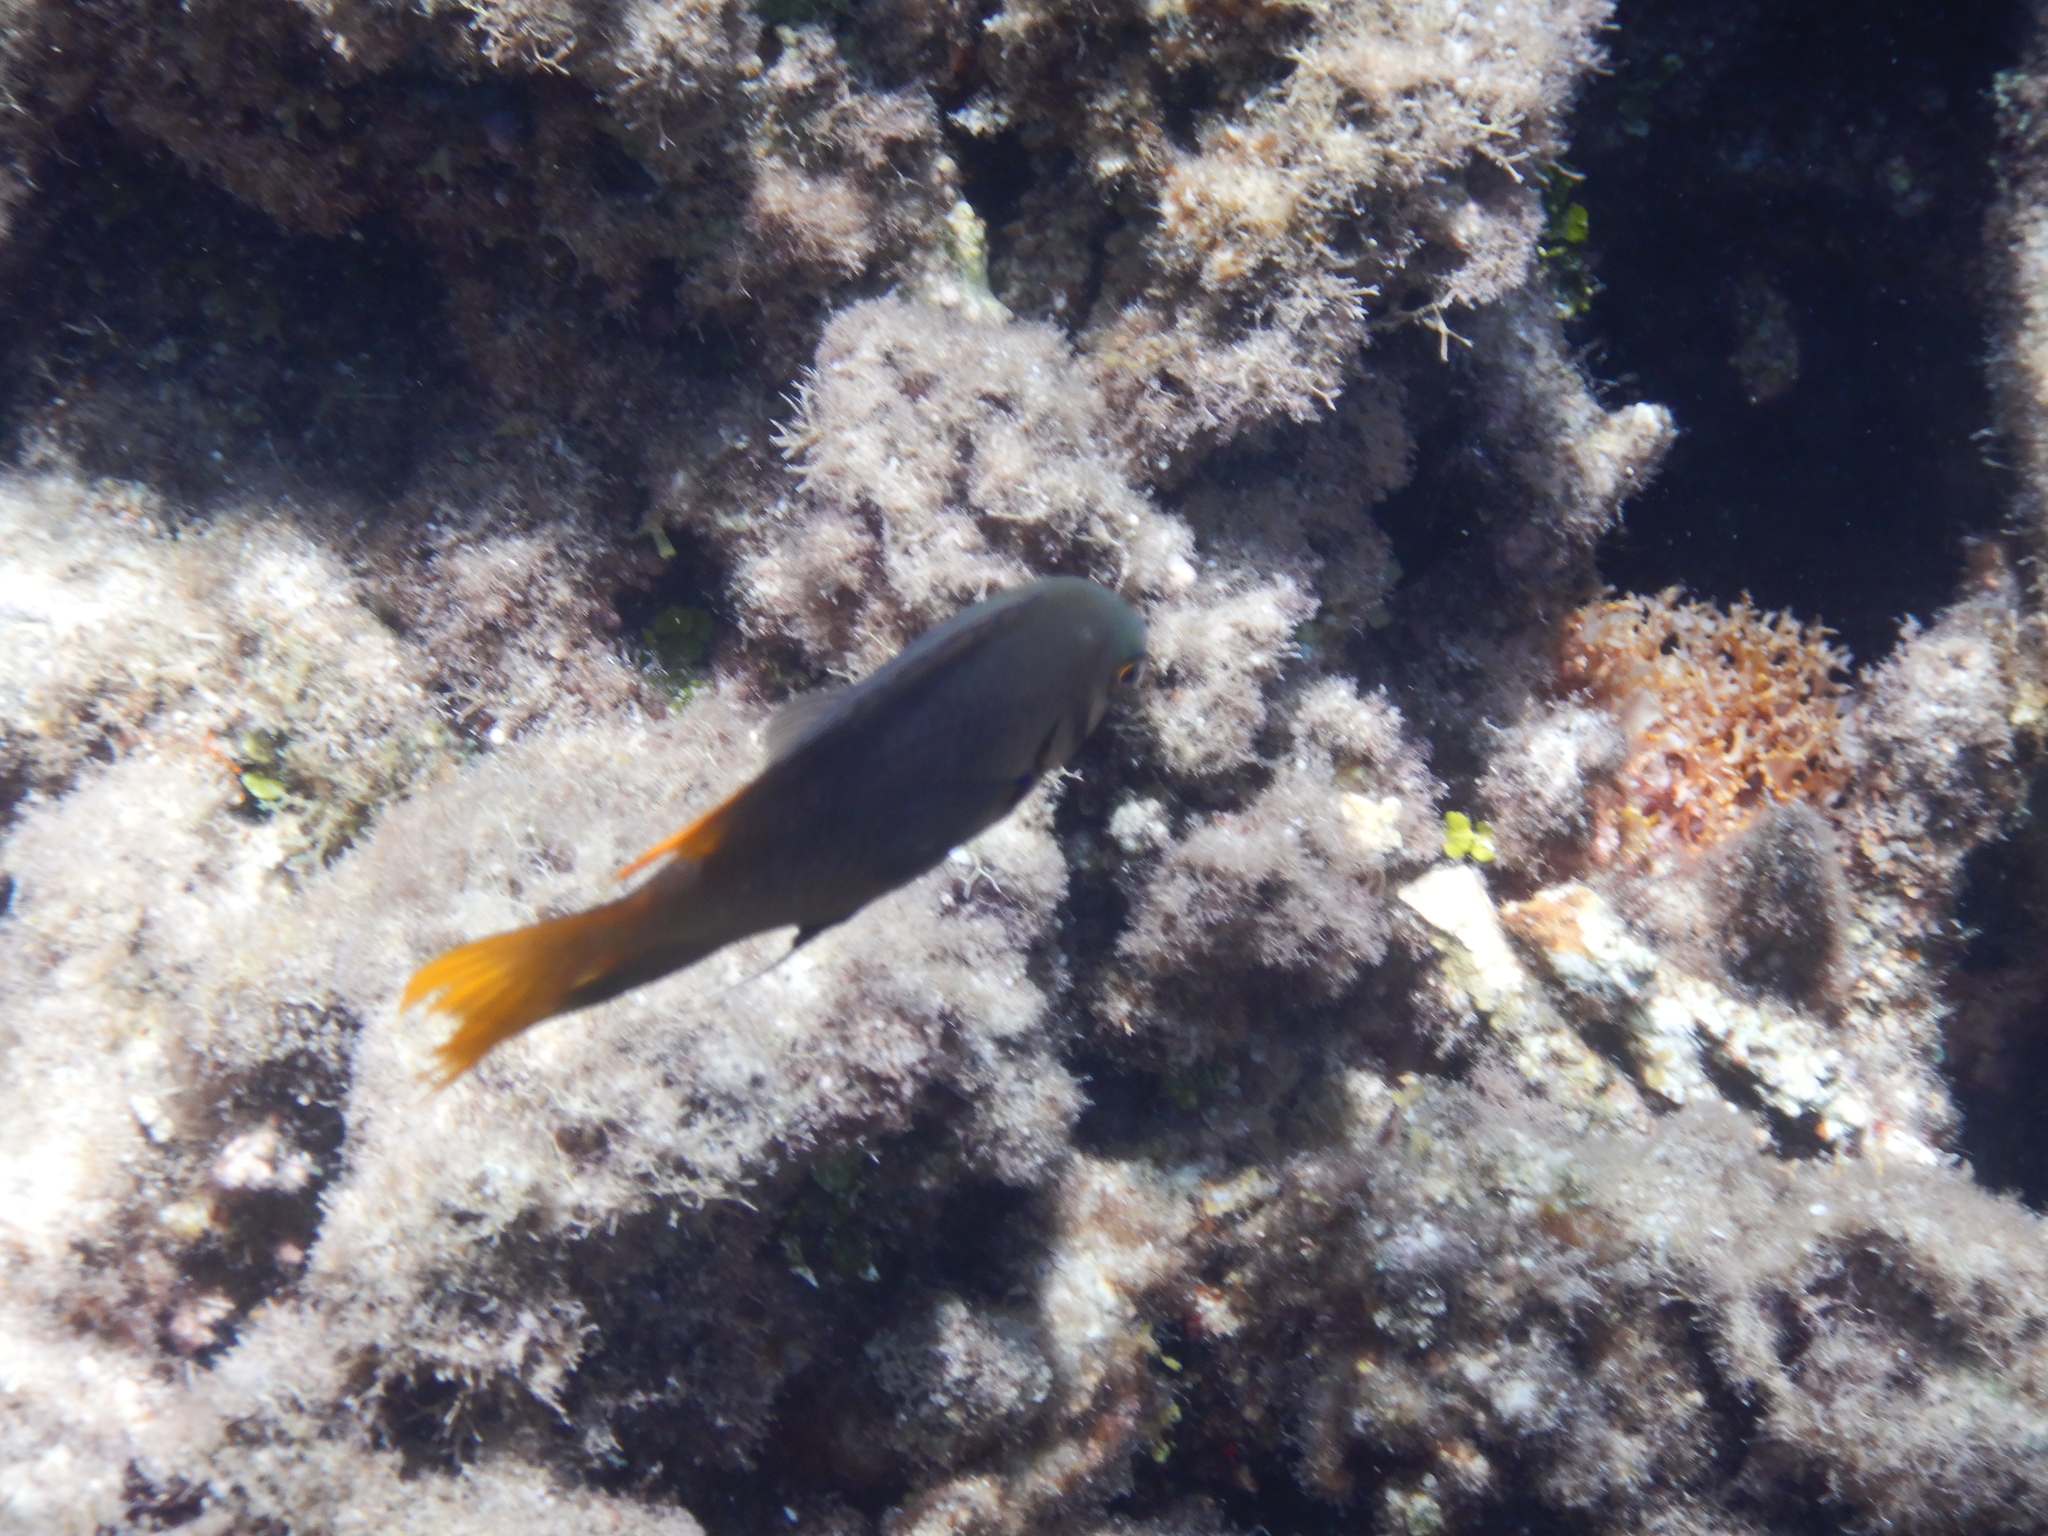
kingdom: Animalia
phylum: Chordata
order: Perciformes
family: Pomacentridae
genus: Neoglyphidodon
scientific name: Neoglyphidodon nigroris
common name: Behn's damsel
